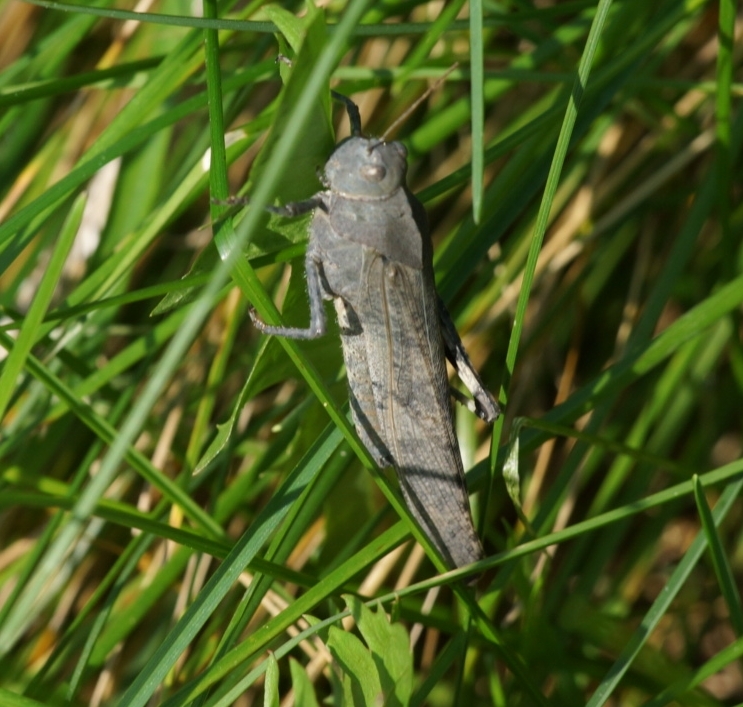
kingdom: Animalia
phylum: Arthropoda
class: Insecta
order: Orthoptera
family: Acrididae
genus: Dissosteira
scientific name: Dissosteira carolina
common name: Carolina grasshopper
